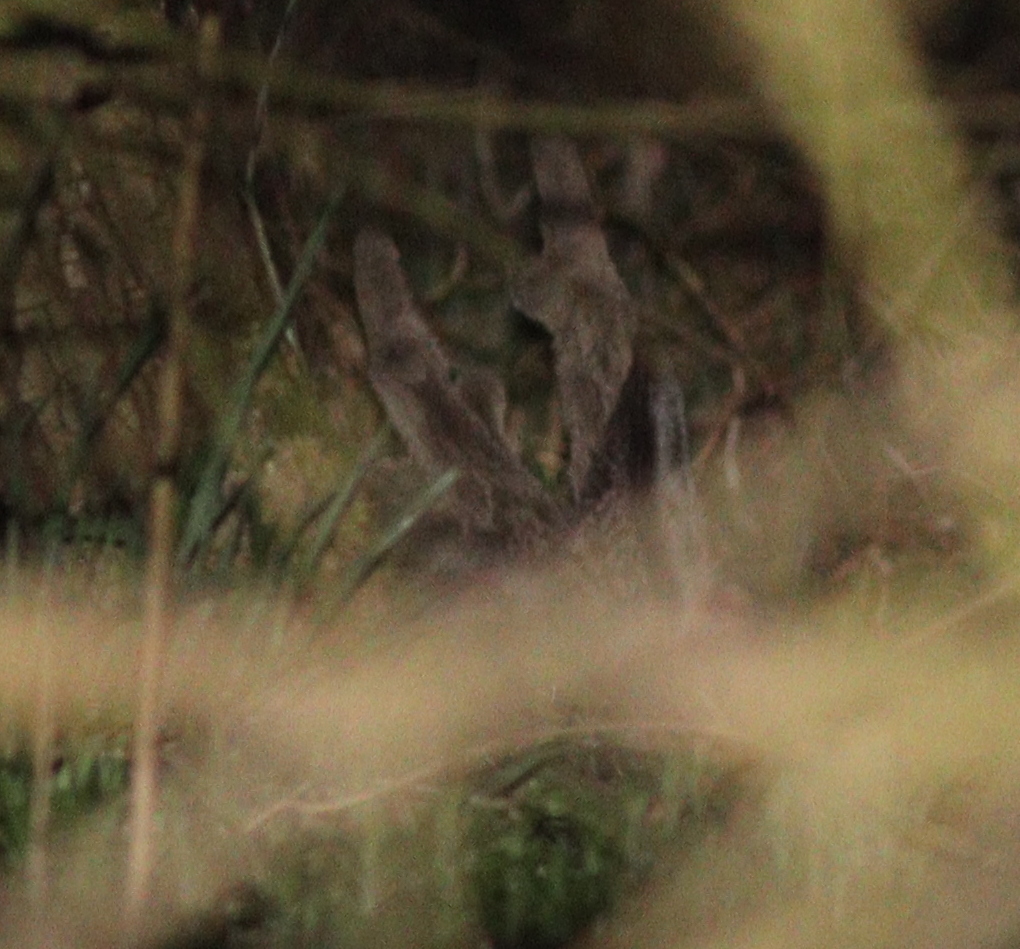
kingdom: Animalia
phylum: Chordata
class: Mammalia
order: Artiodactyla
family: Cervidae
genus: Capreolus
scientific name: Capreolus capreolus
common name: Western roe deer
